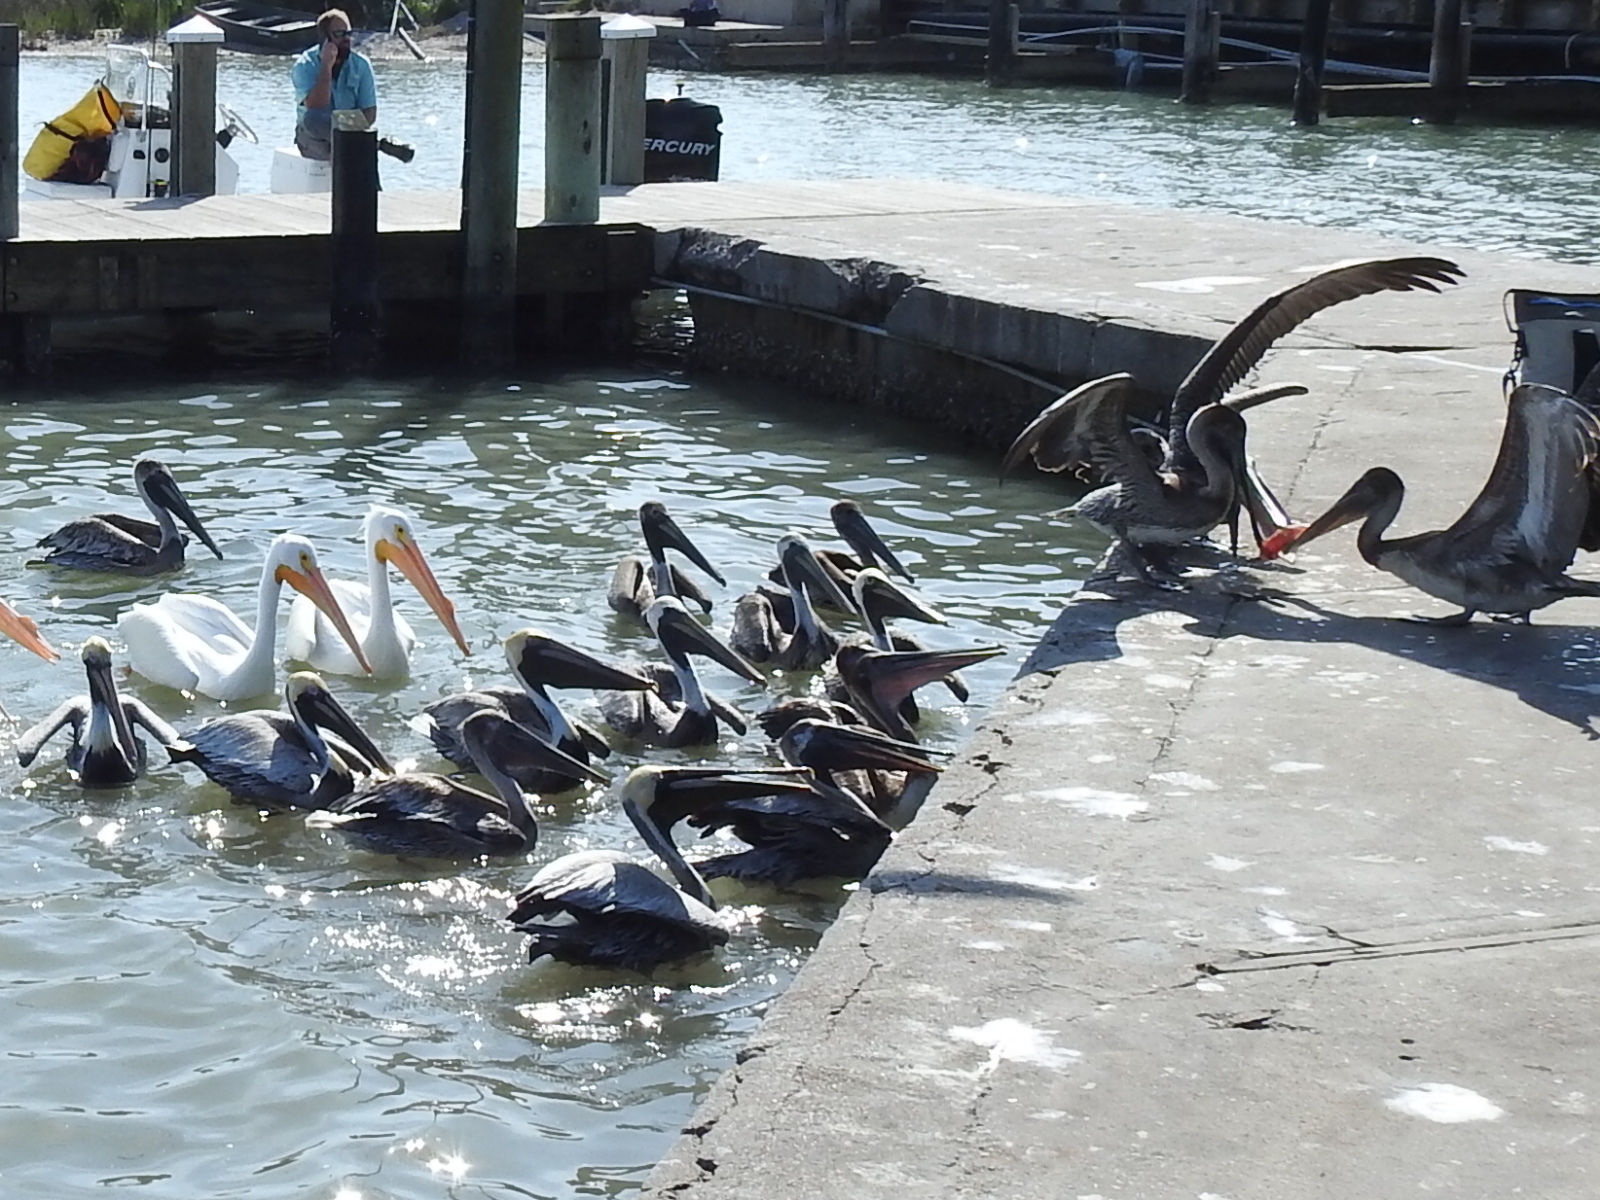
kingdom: Animalia
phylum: Chordata
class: Aves
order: Pelecaniformes
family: Pelecanidae
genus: Pelecanus
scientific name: Pelecanus occidentalis
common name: Brown pelican
